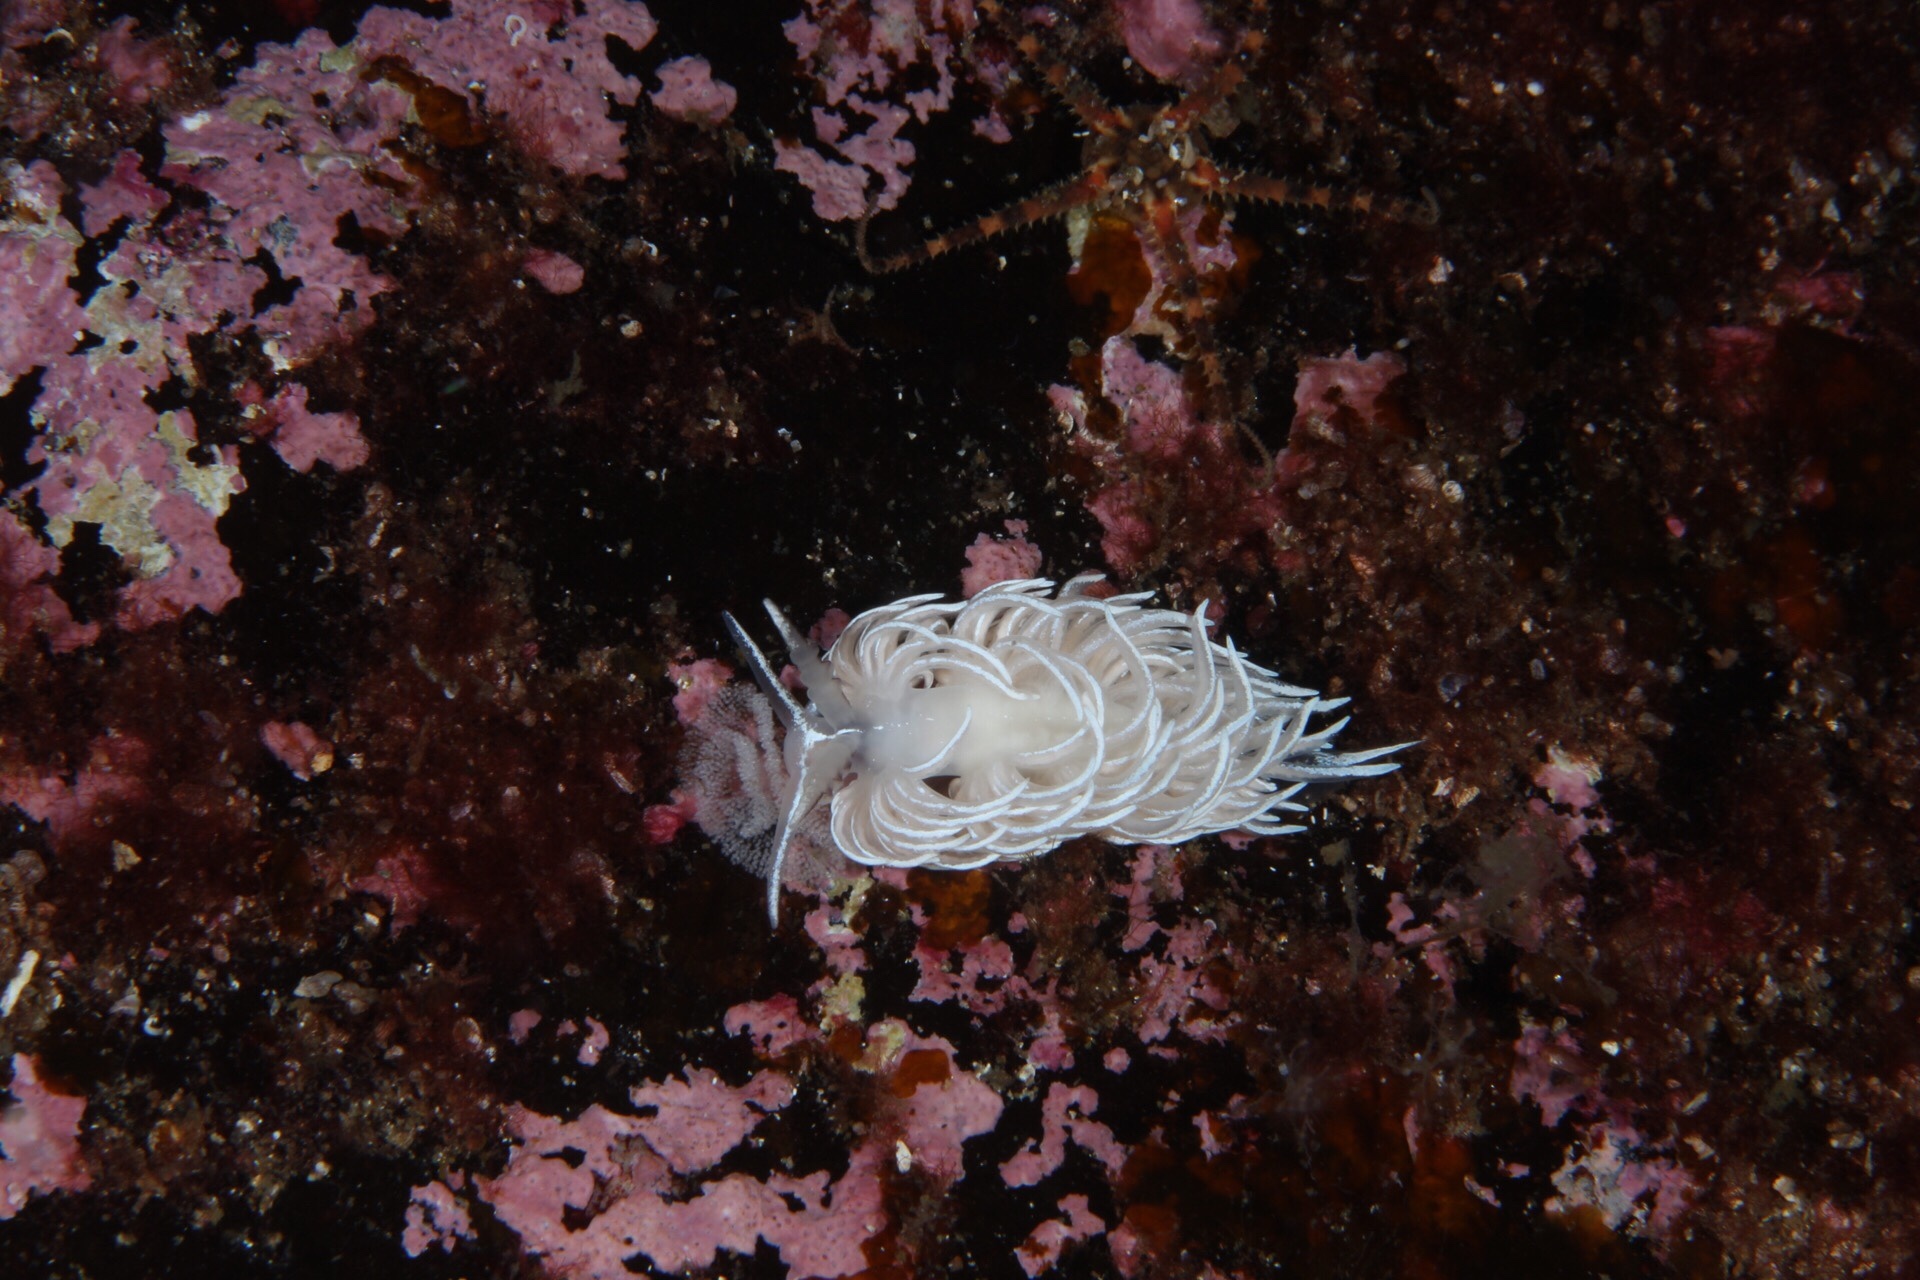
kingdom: Animalia
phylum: Mollusca
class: Gastropoda
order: Nudibranchia
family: Facelinidae
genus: Favorinus
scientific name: Favorinus blianus
